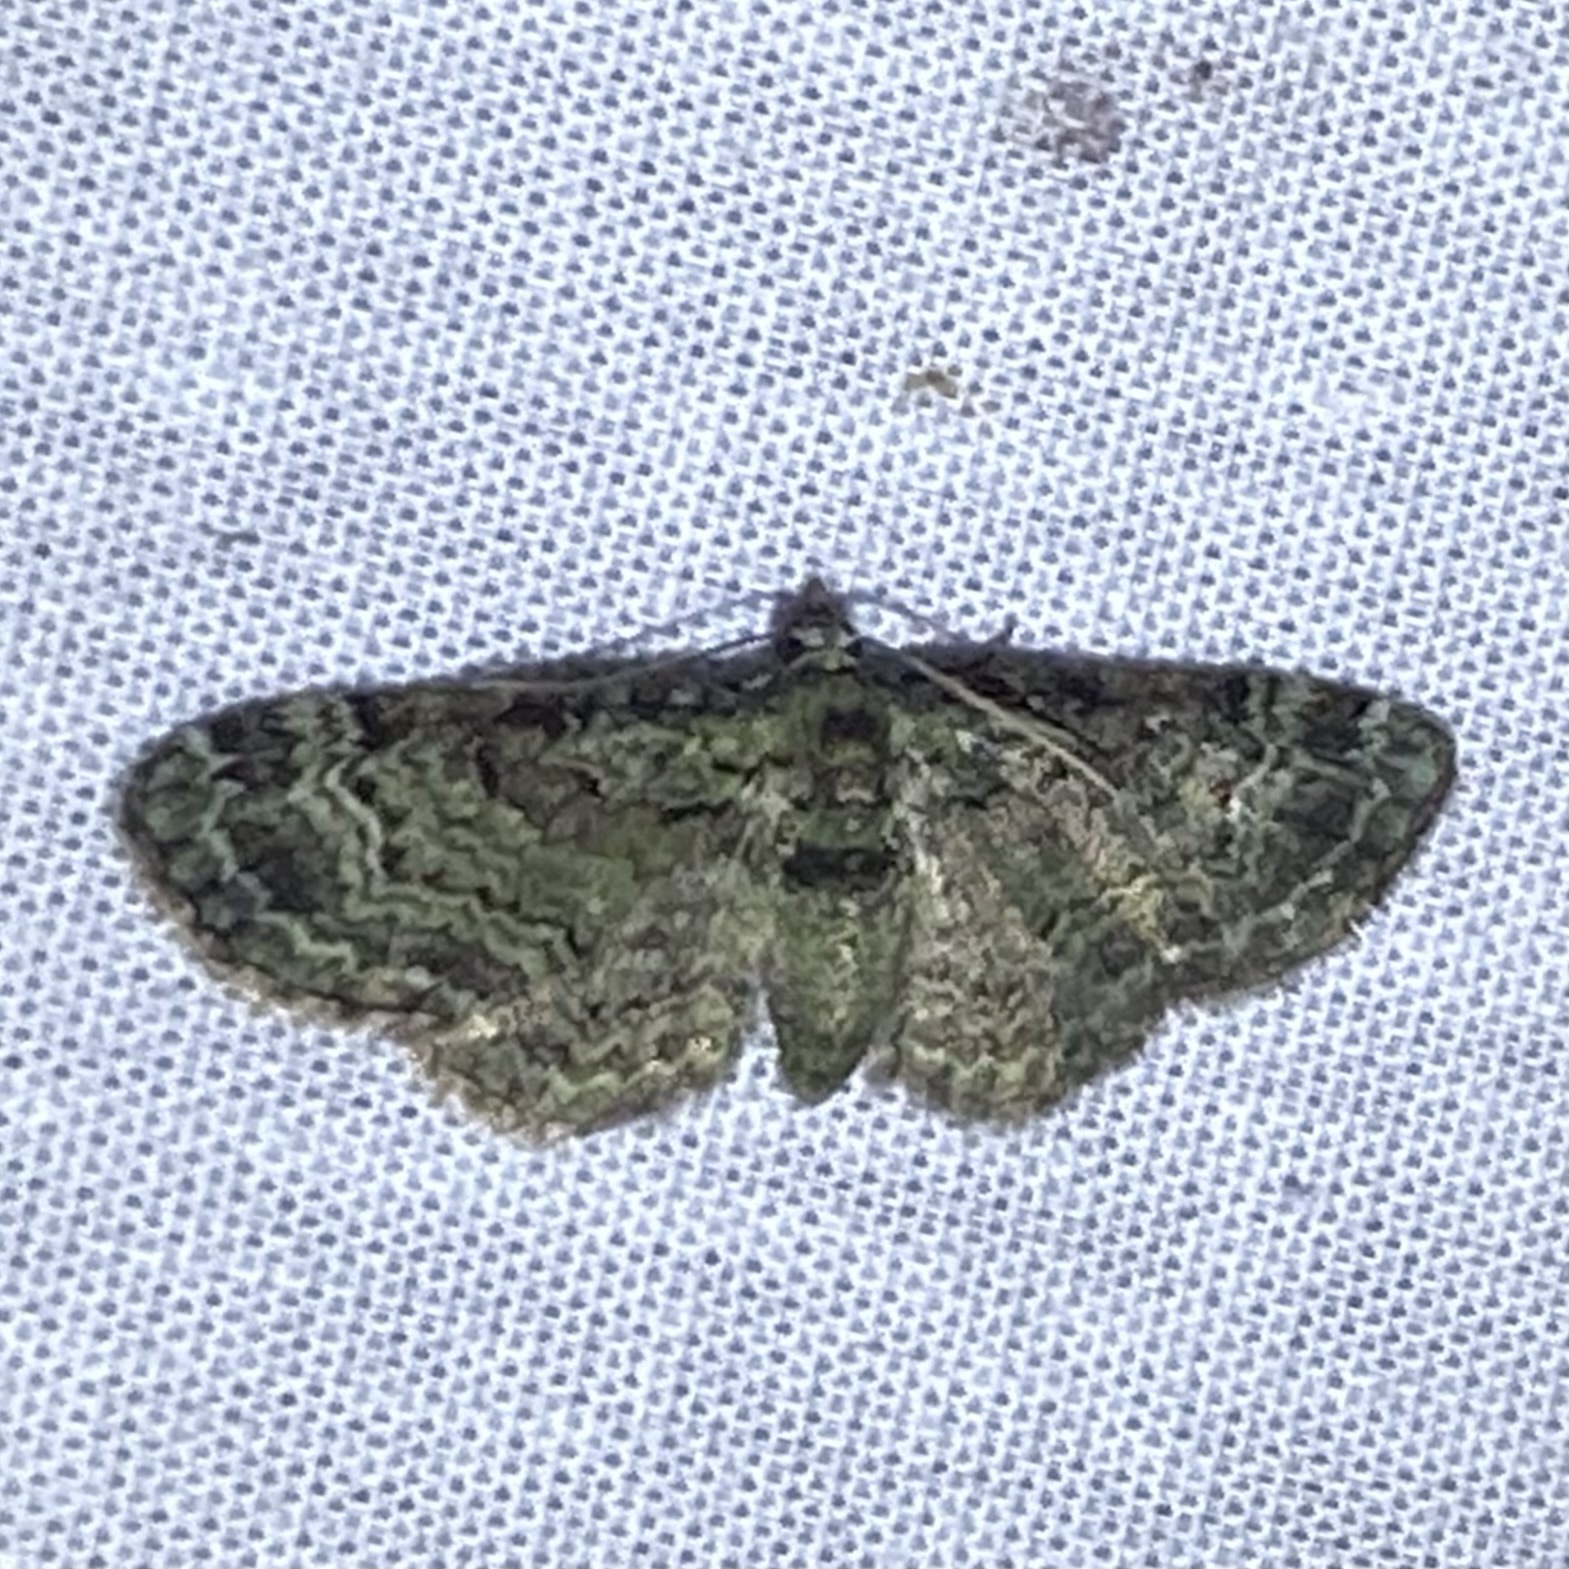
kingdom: Animalia
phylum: Arthropoda
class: Insecta
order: Lepidoptera
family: Geometridae
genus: Pasiphila
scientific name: Pasiphila rectangulata
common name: Green pug
